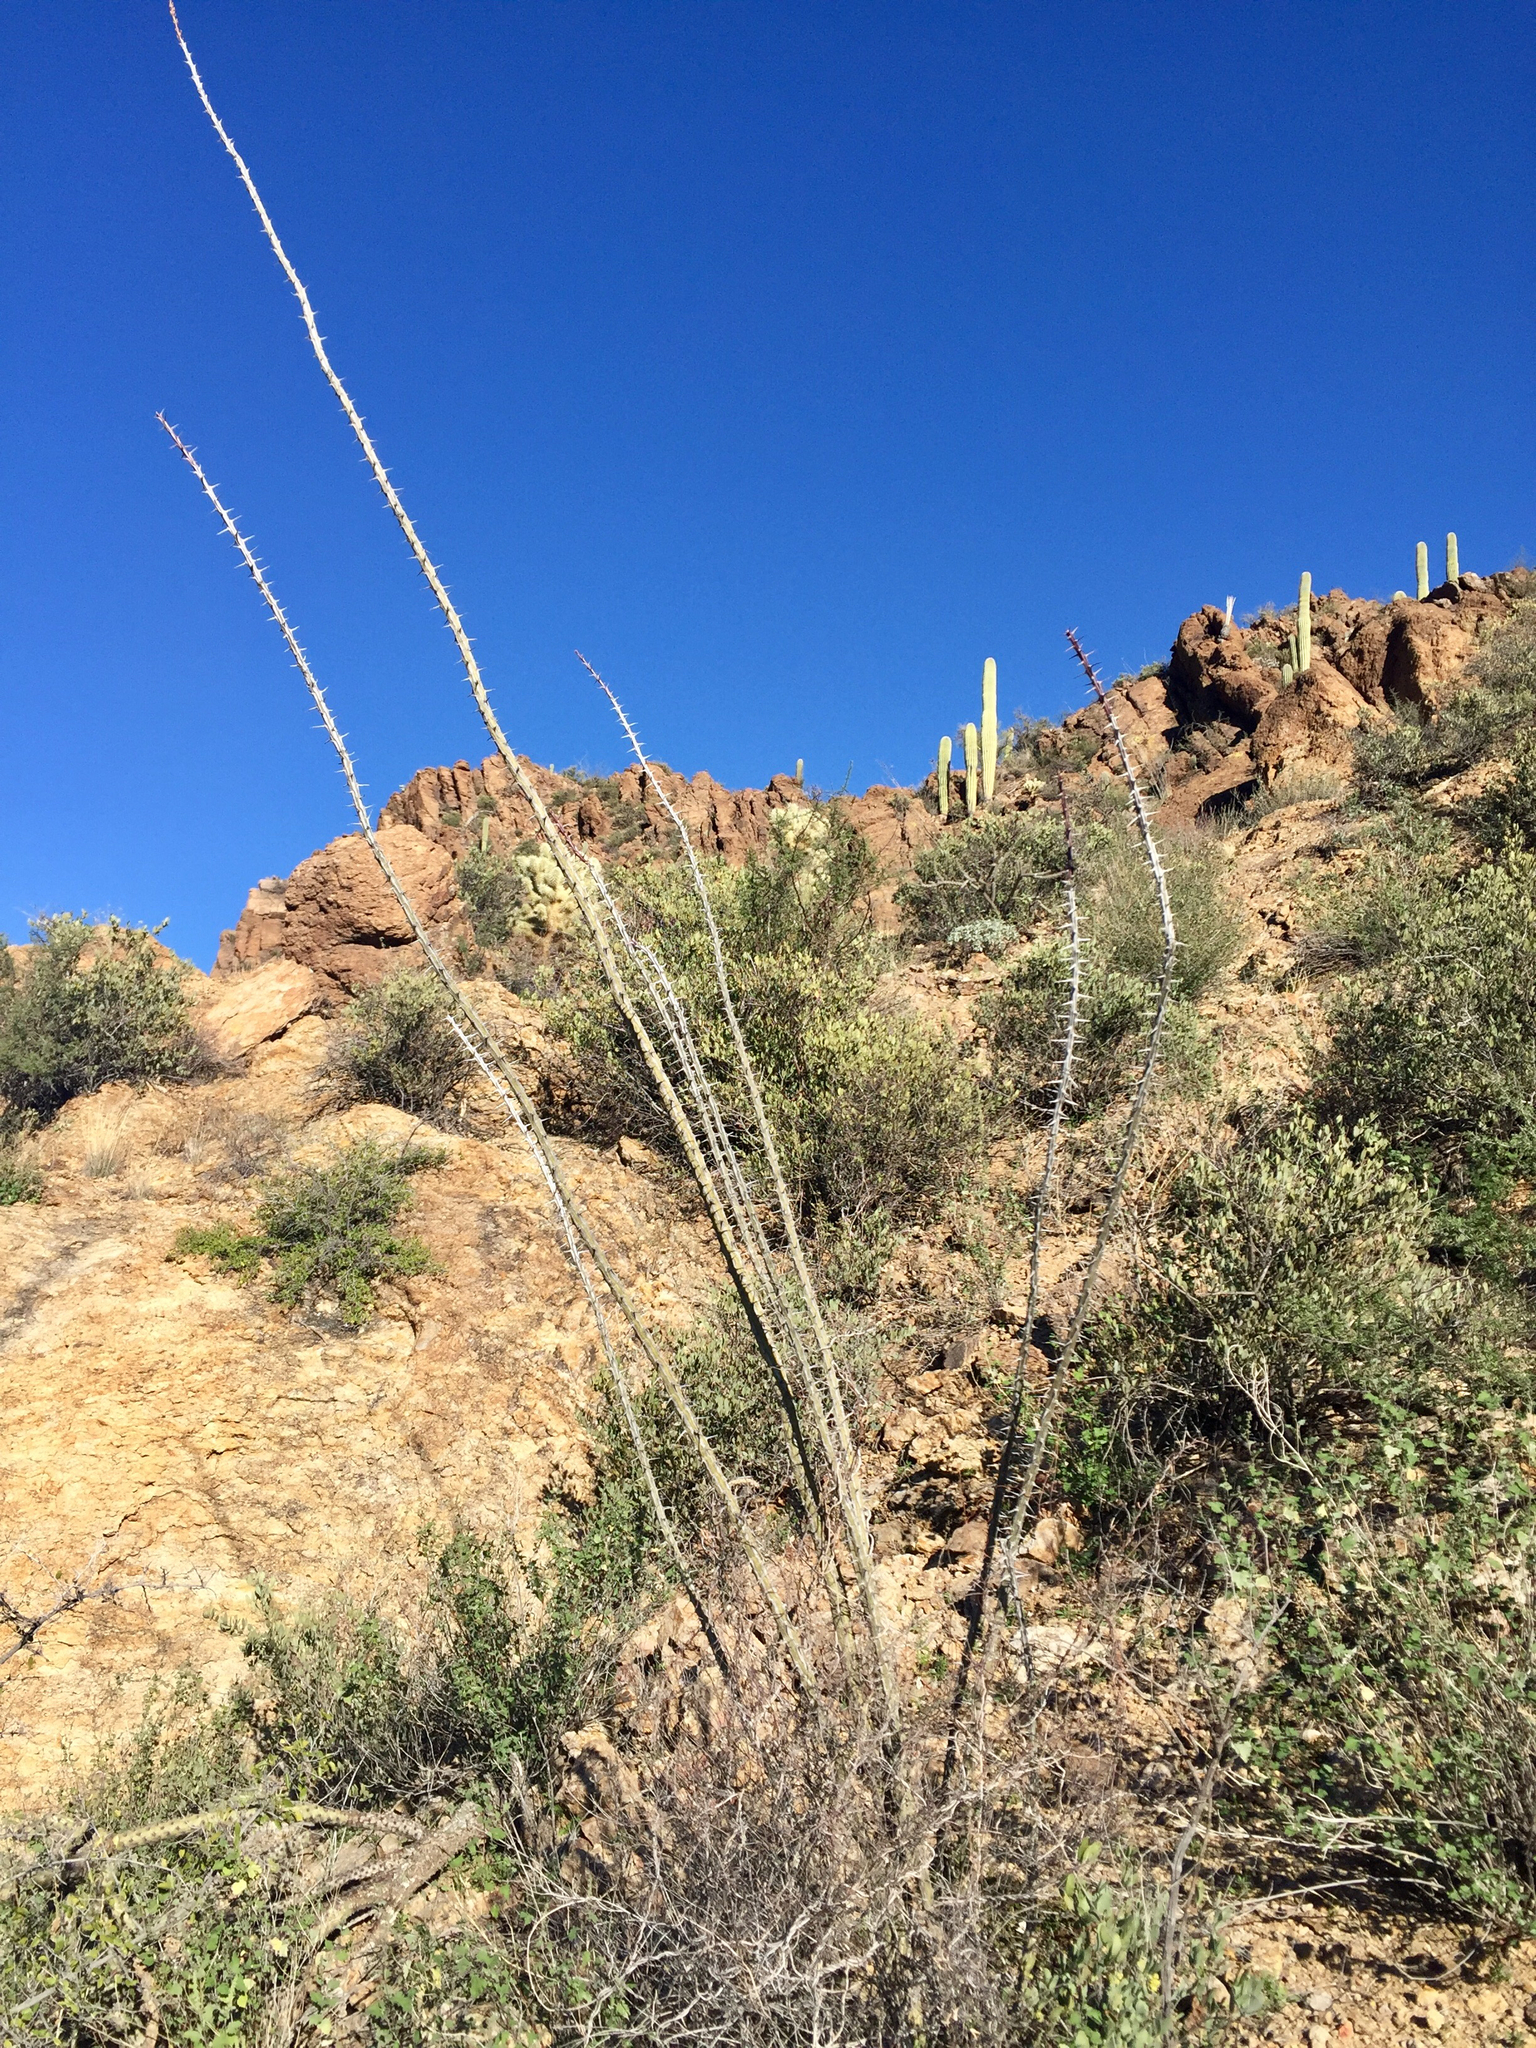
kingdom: Plantae
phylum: Tracheophyta
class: Magnoliopsida
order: Ericales
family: Fouquieriaceae
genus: Fouquieria
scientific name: Fouquieria splendens
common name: Vine-cactus
